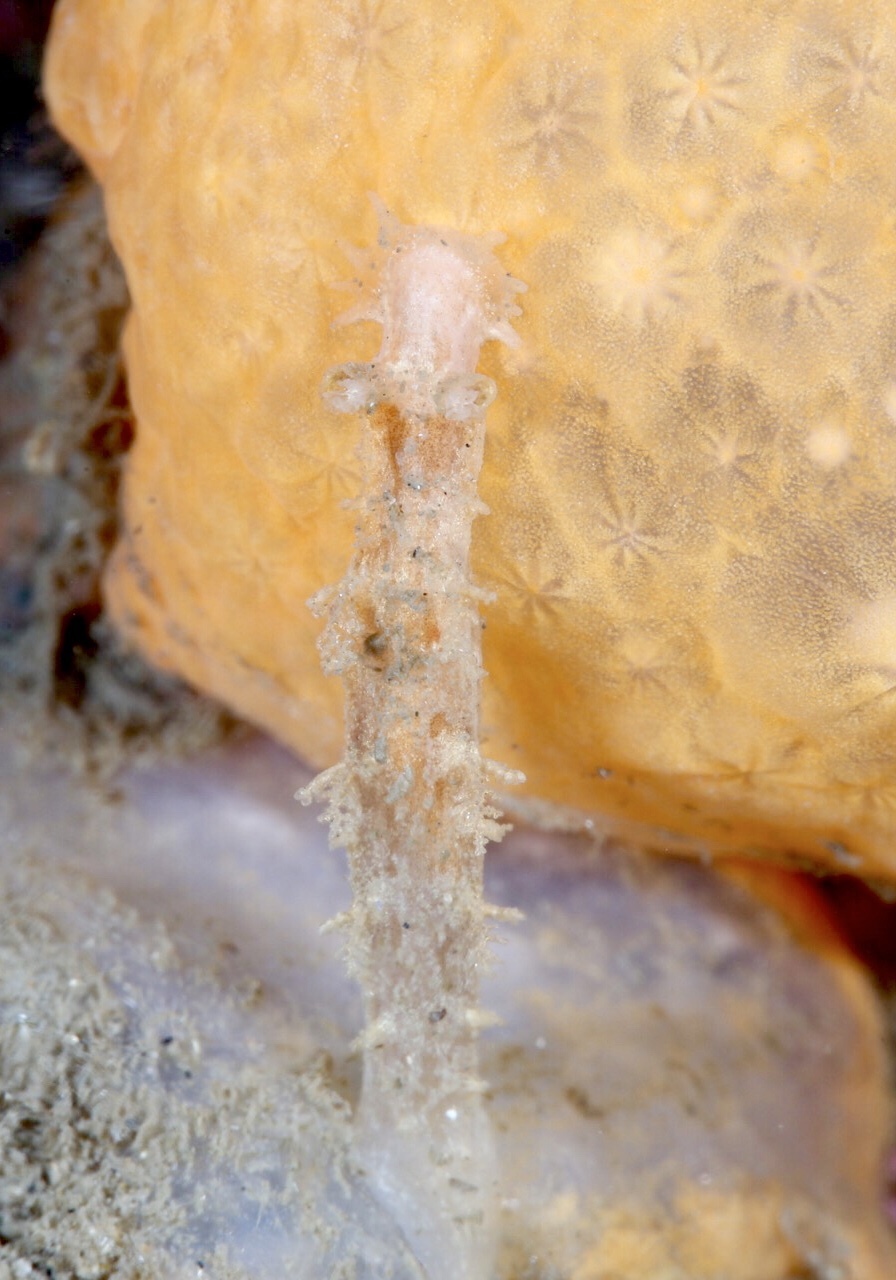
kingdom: Animalia
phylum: Mollusca
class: Gastropoda
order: Nudibranchia
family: Tritoniidae
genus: Duvaucelia
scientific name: Duvaucelia plebeia
